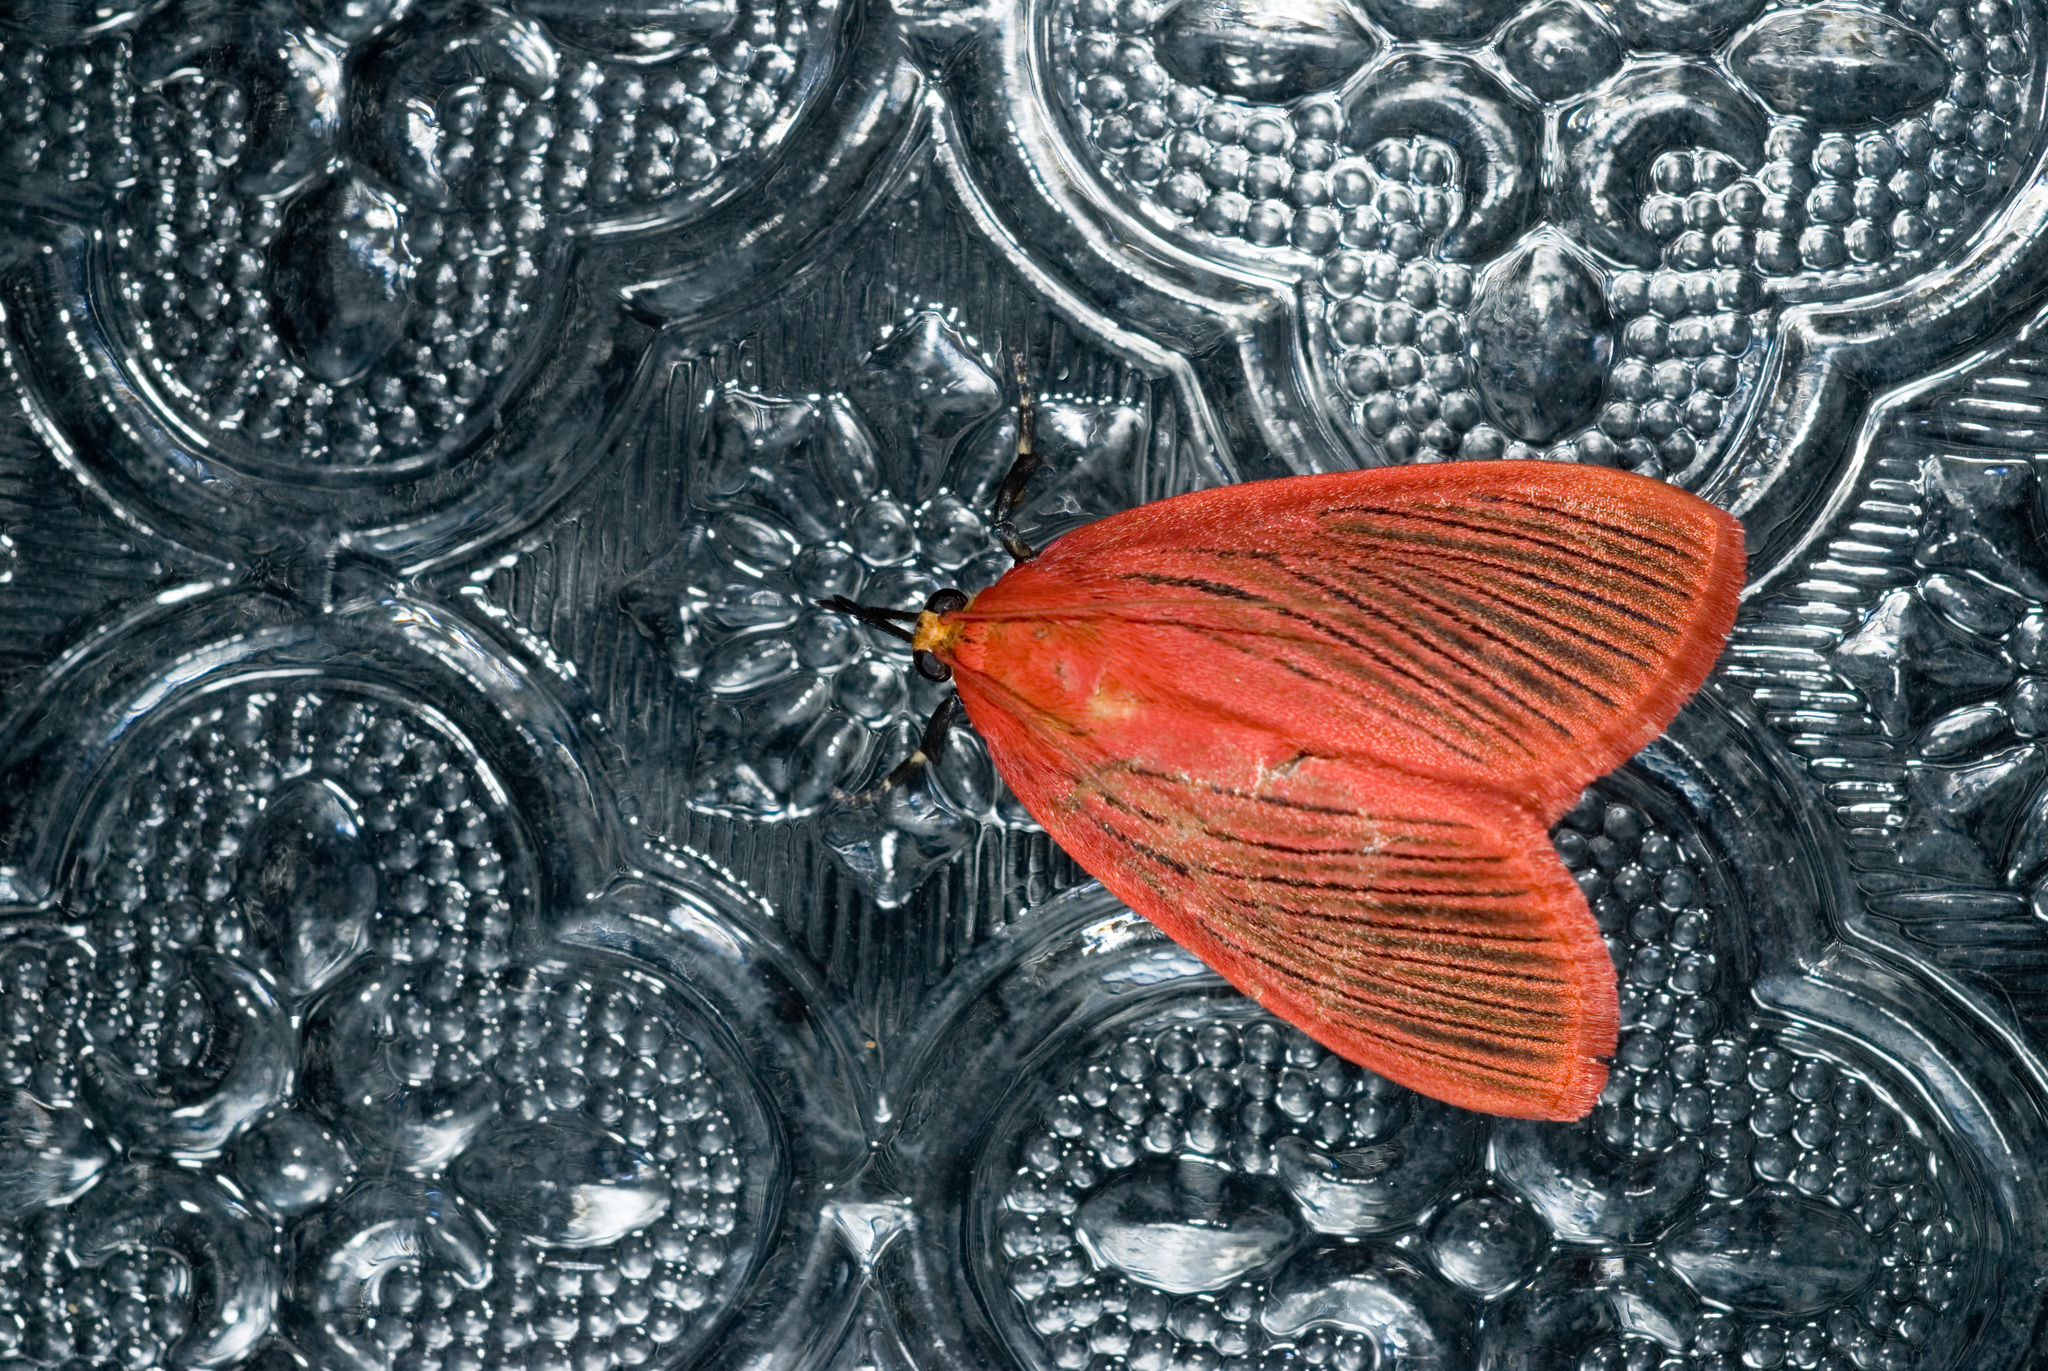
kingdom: Animalia
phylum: Arthropoda
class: Insecta
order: Lepidoptera
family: Pyralidae
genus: Arctioblepsis
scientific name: Arctioblepsis rubida
